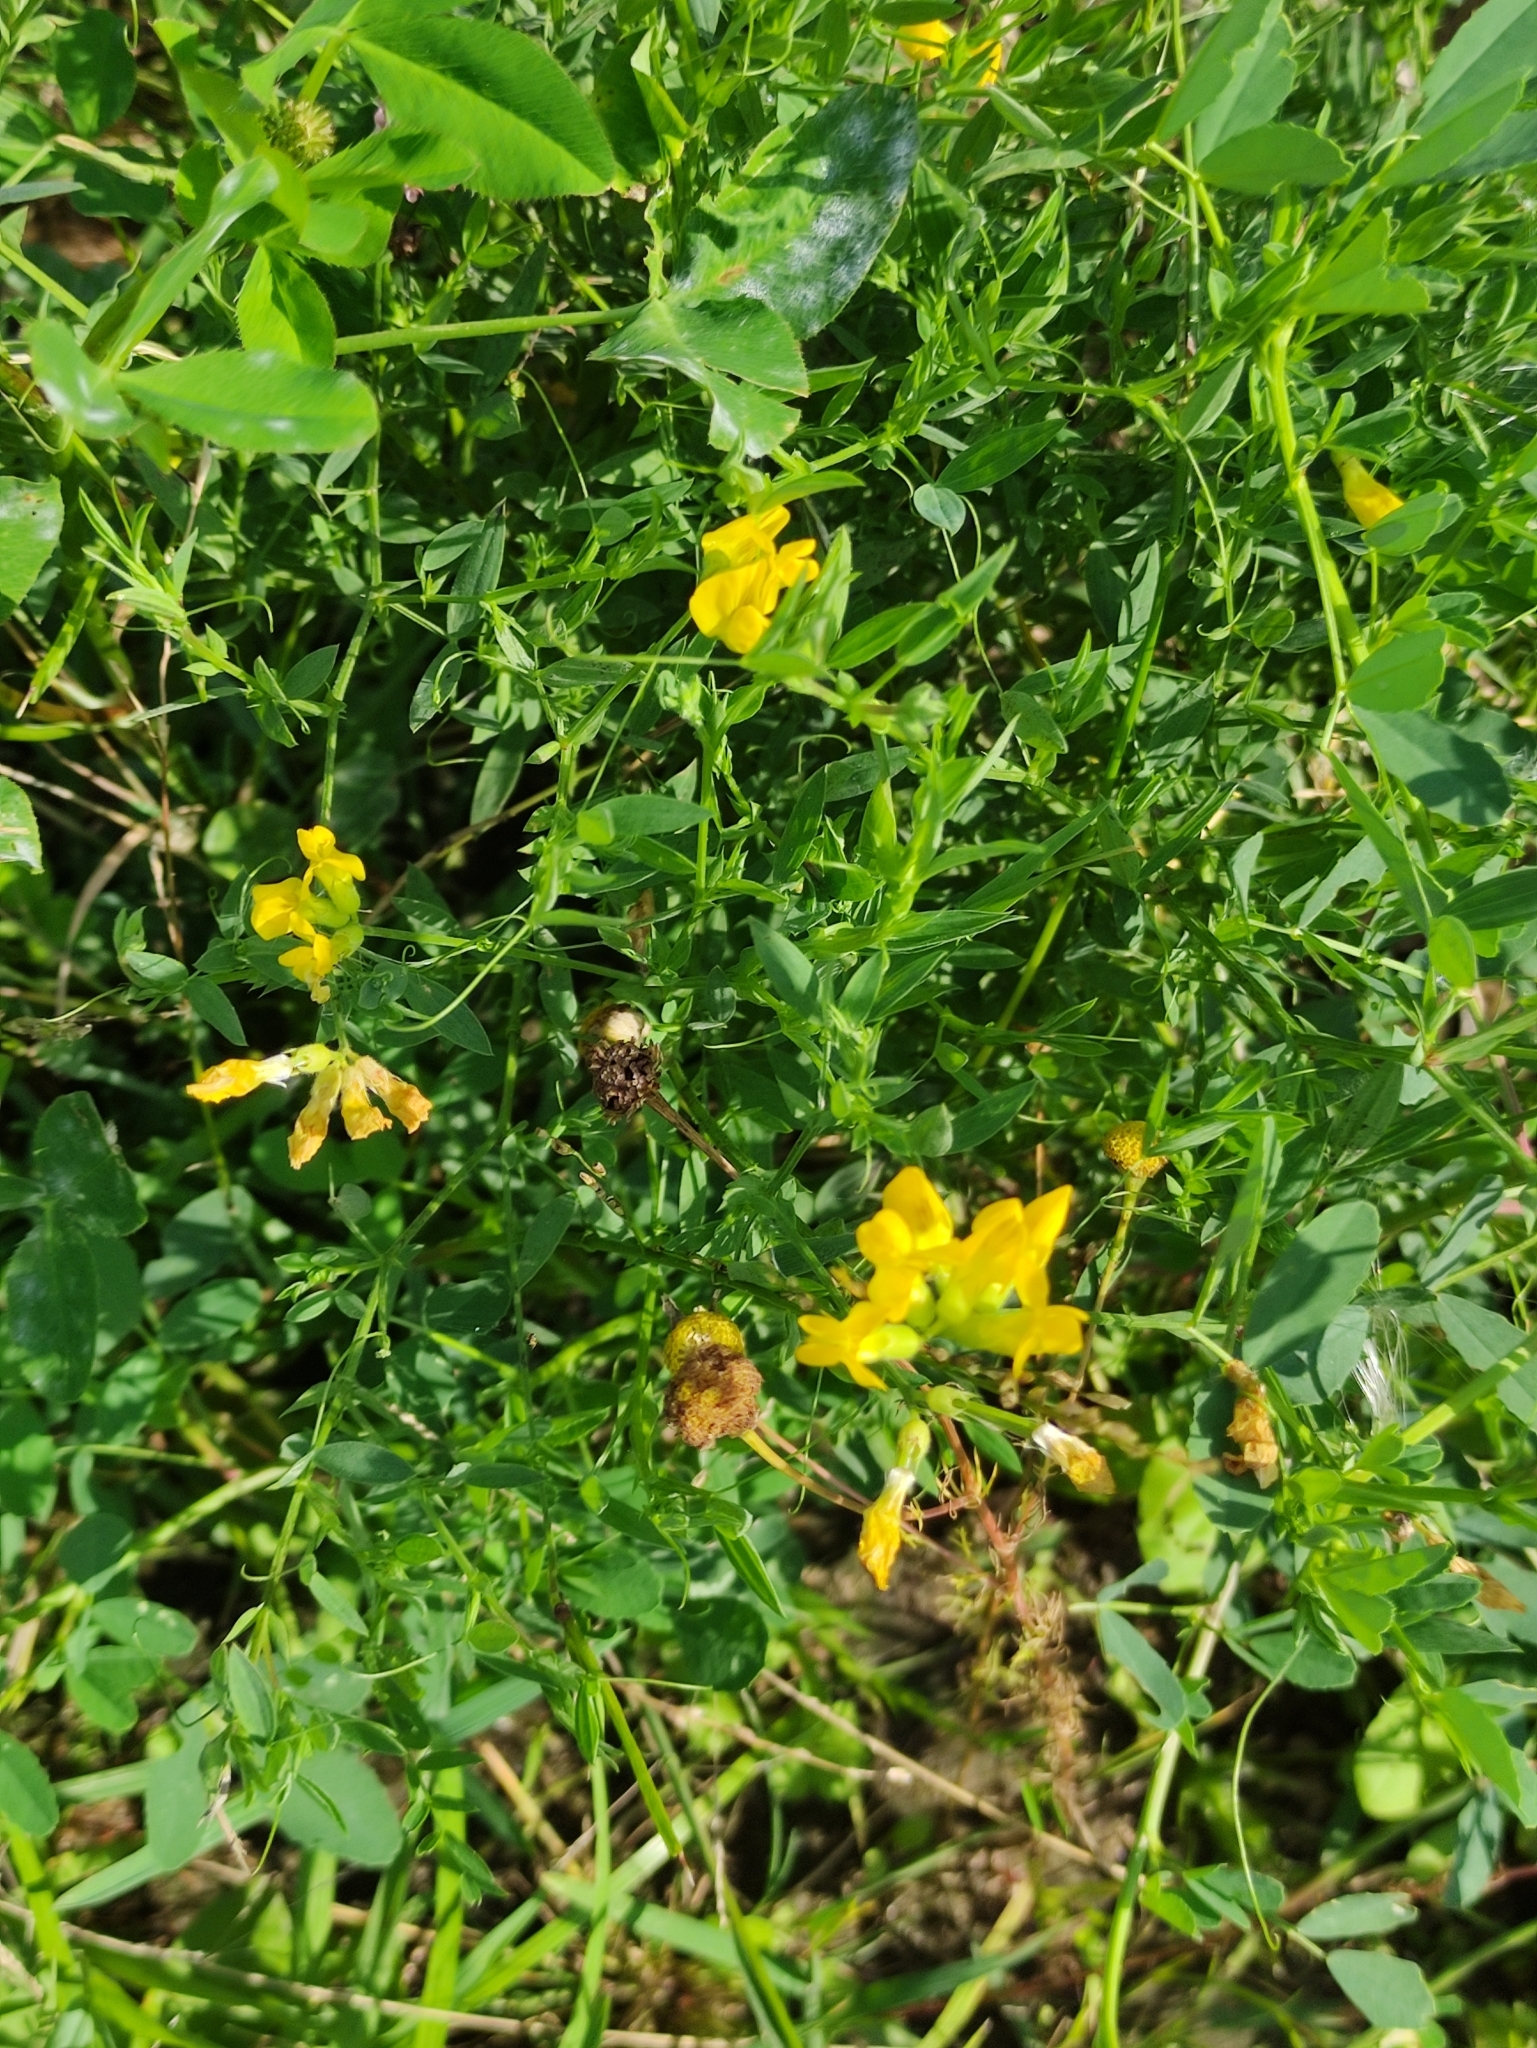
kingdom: Plantae
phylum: Tracheophyta
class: Magnoliopsida
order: Fabales
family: Fabaceae
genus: Lathyrus
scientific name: Lathyrus pratensis
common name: Meadow vetchling
